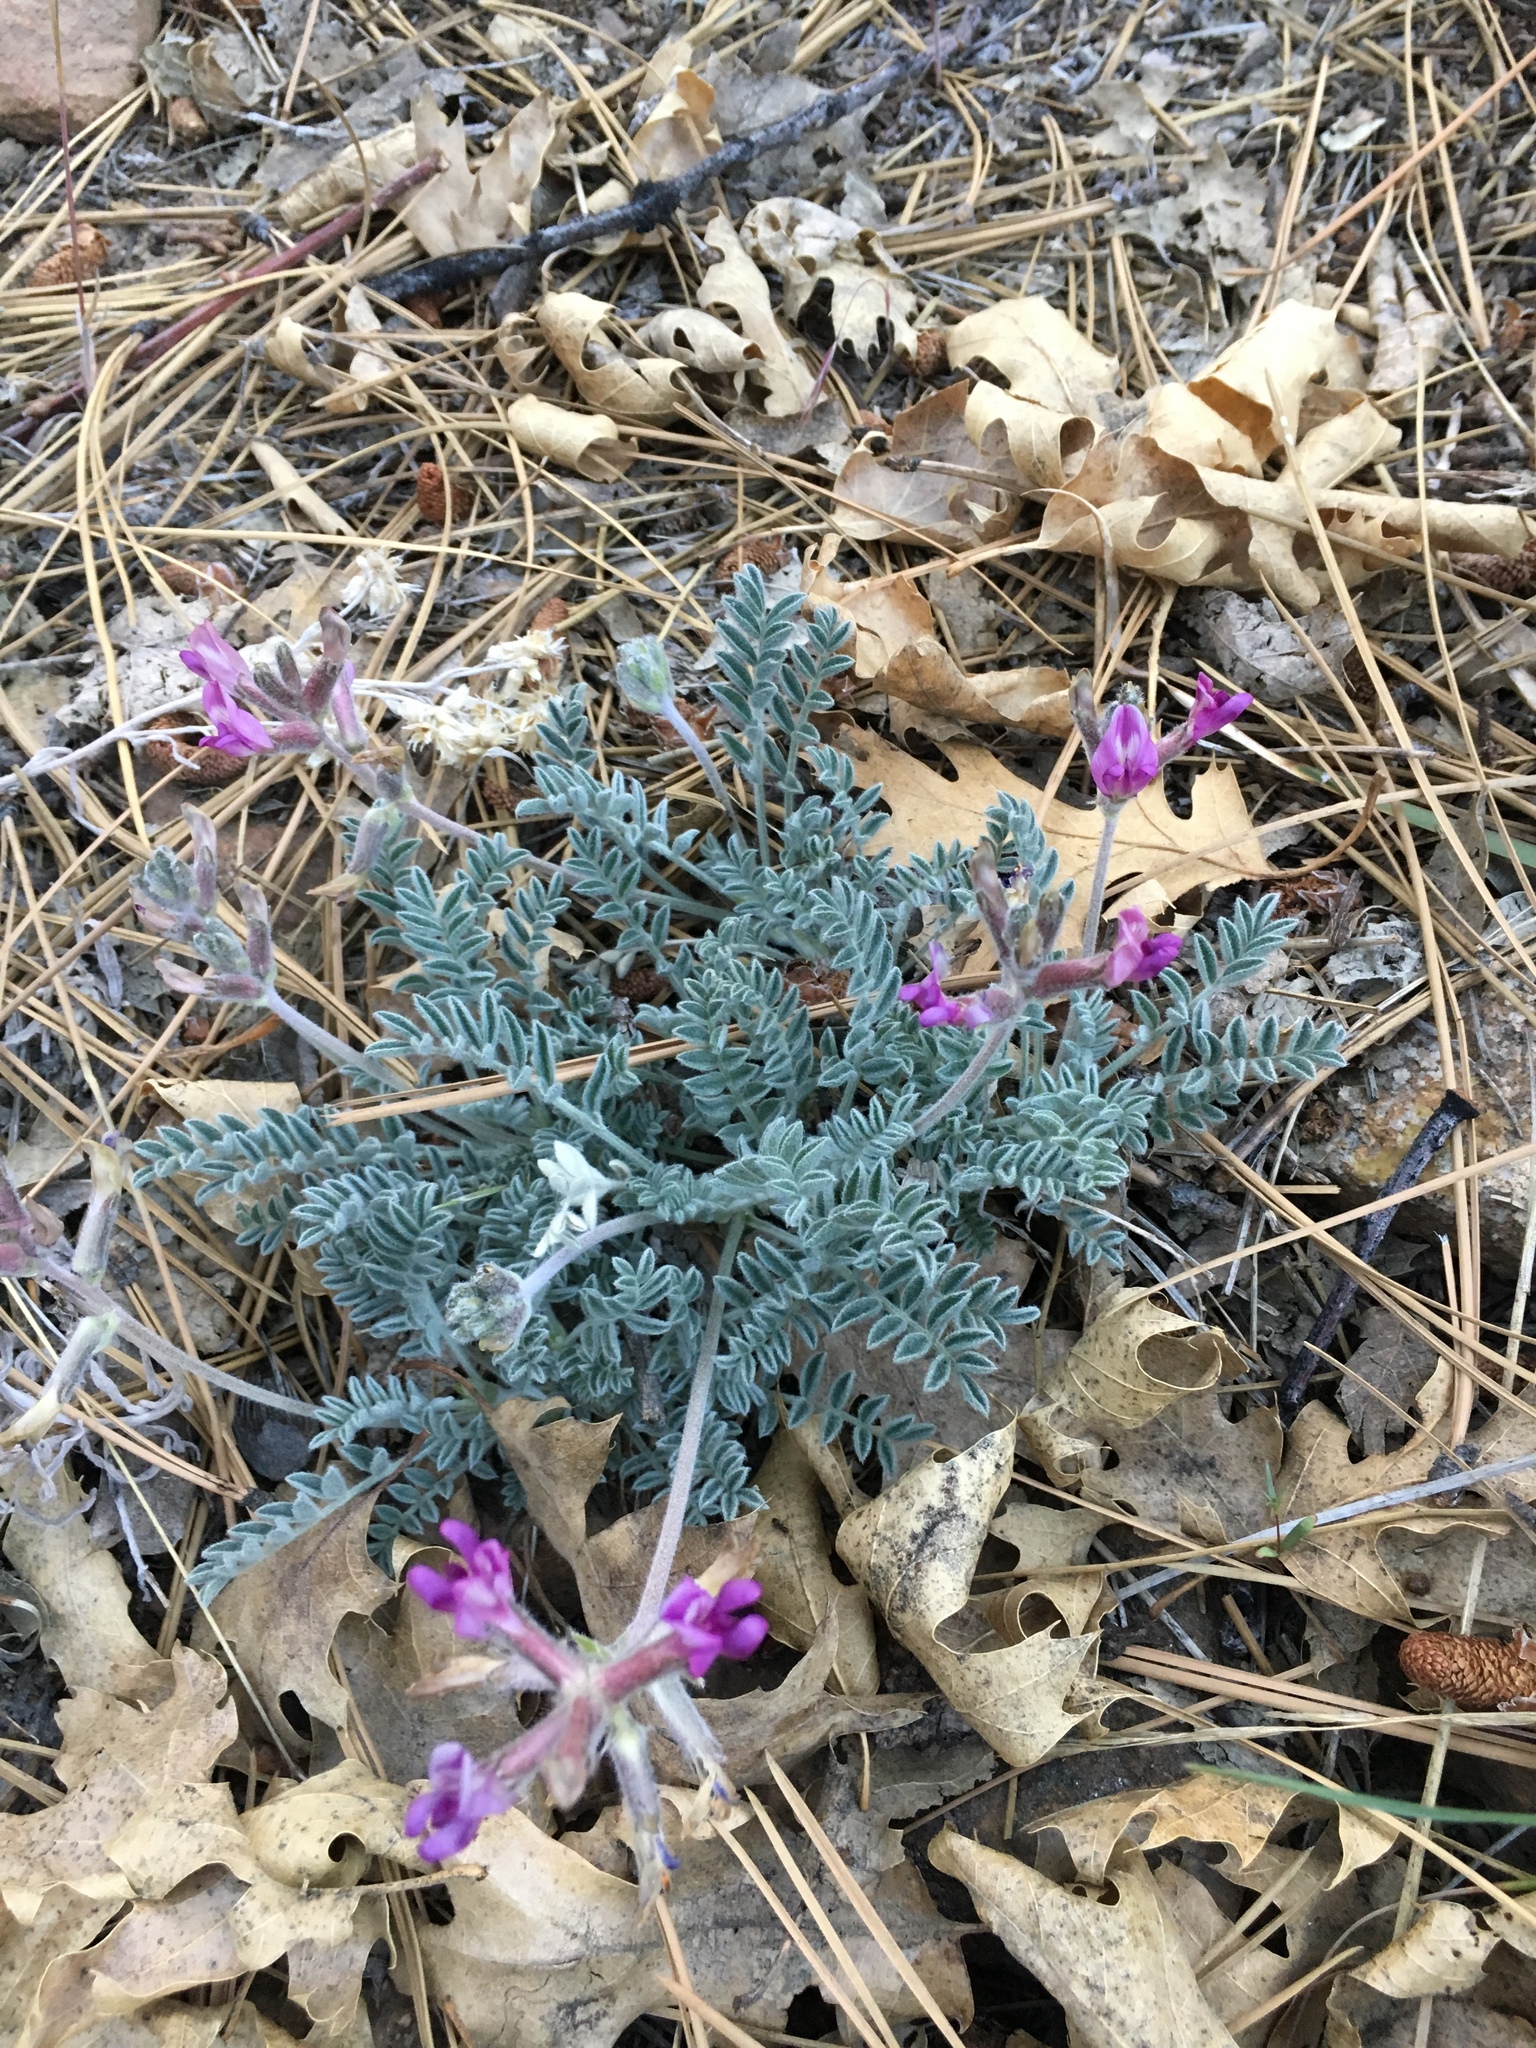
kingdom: Plantae
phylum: Tracheophyta
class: Magnoliopsida
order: Fabales
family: Fabaceae
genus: Astragalus
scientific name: Astragalus leucolobus
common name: Big bear valley woollypod
